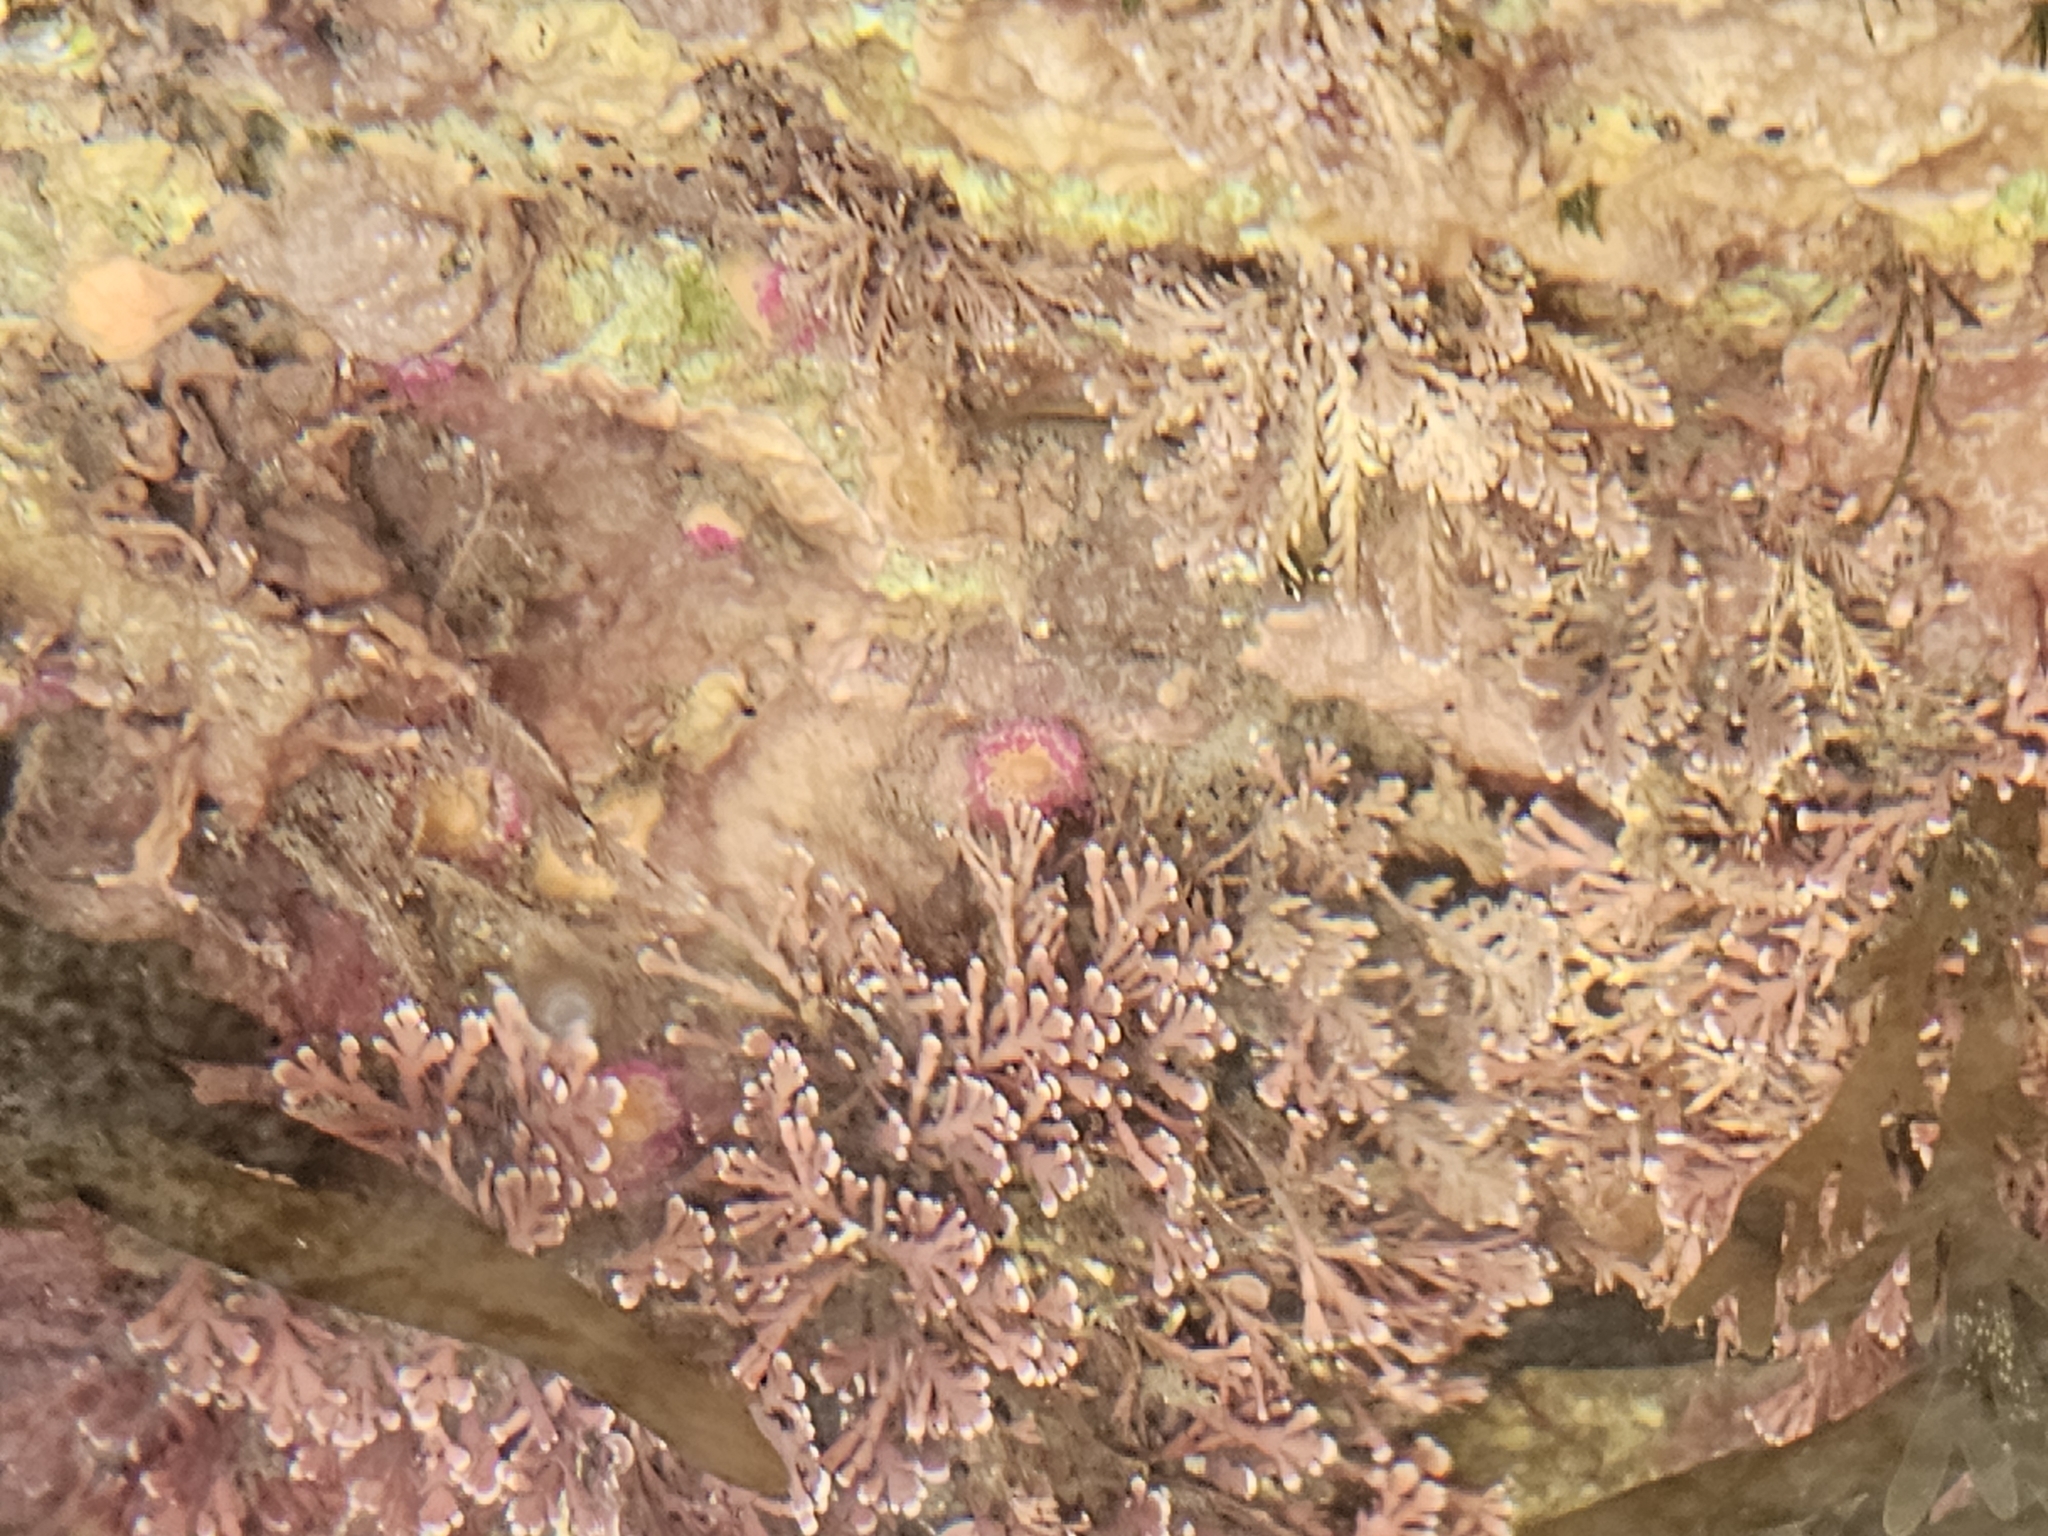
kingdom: Animalia
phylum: Cnidaria
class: Anthozoa
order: Corallimorpharia
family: Corallimorphidae
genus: Corynactis
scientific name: Corynactis australis
